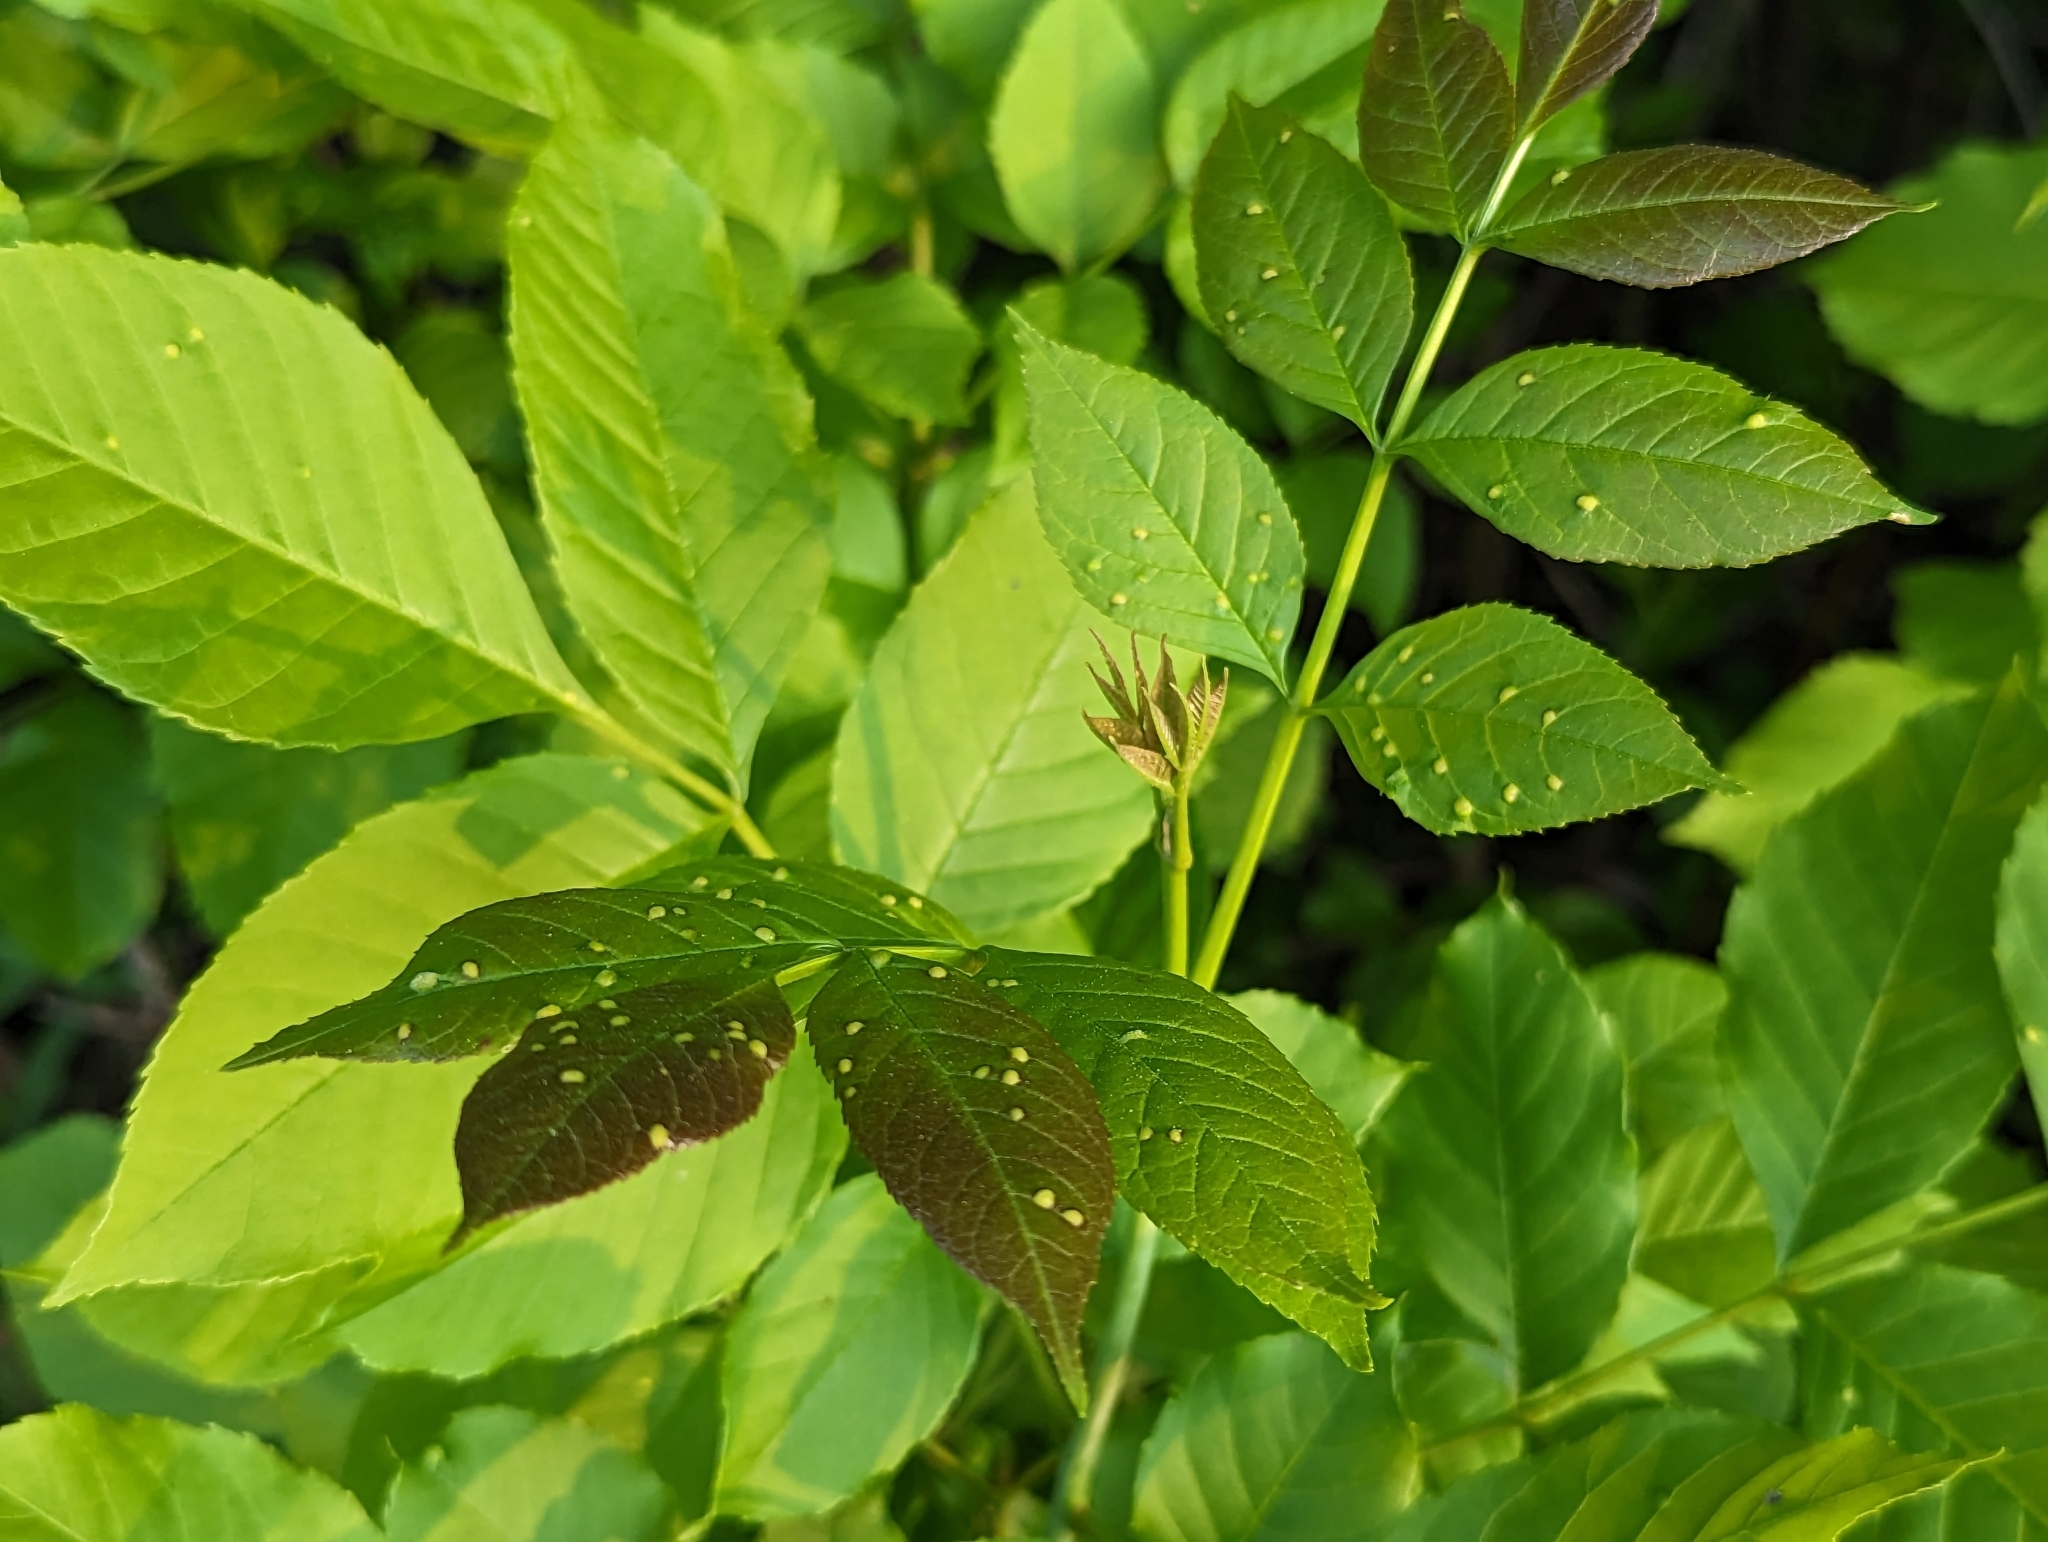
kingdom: Animalia
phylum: Arthropoda
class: Arachnida
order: Trombidiformes
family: Eriophyidae
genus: Aceria
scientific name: Aceria fraxinicola
